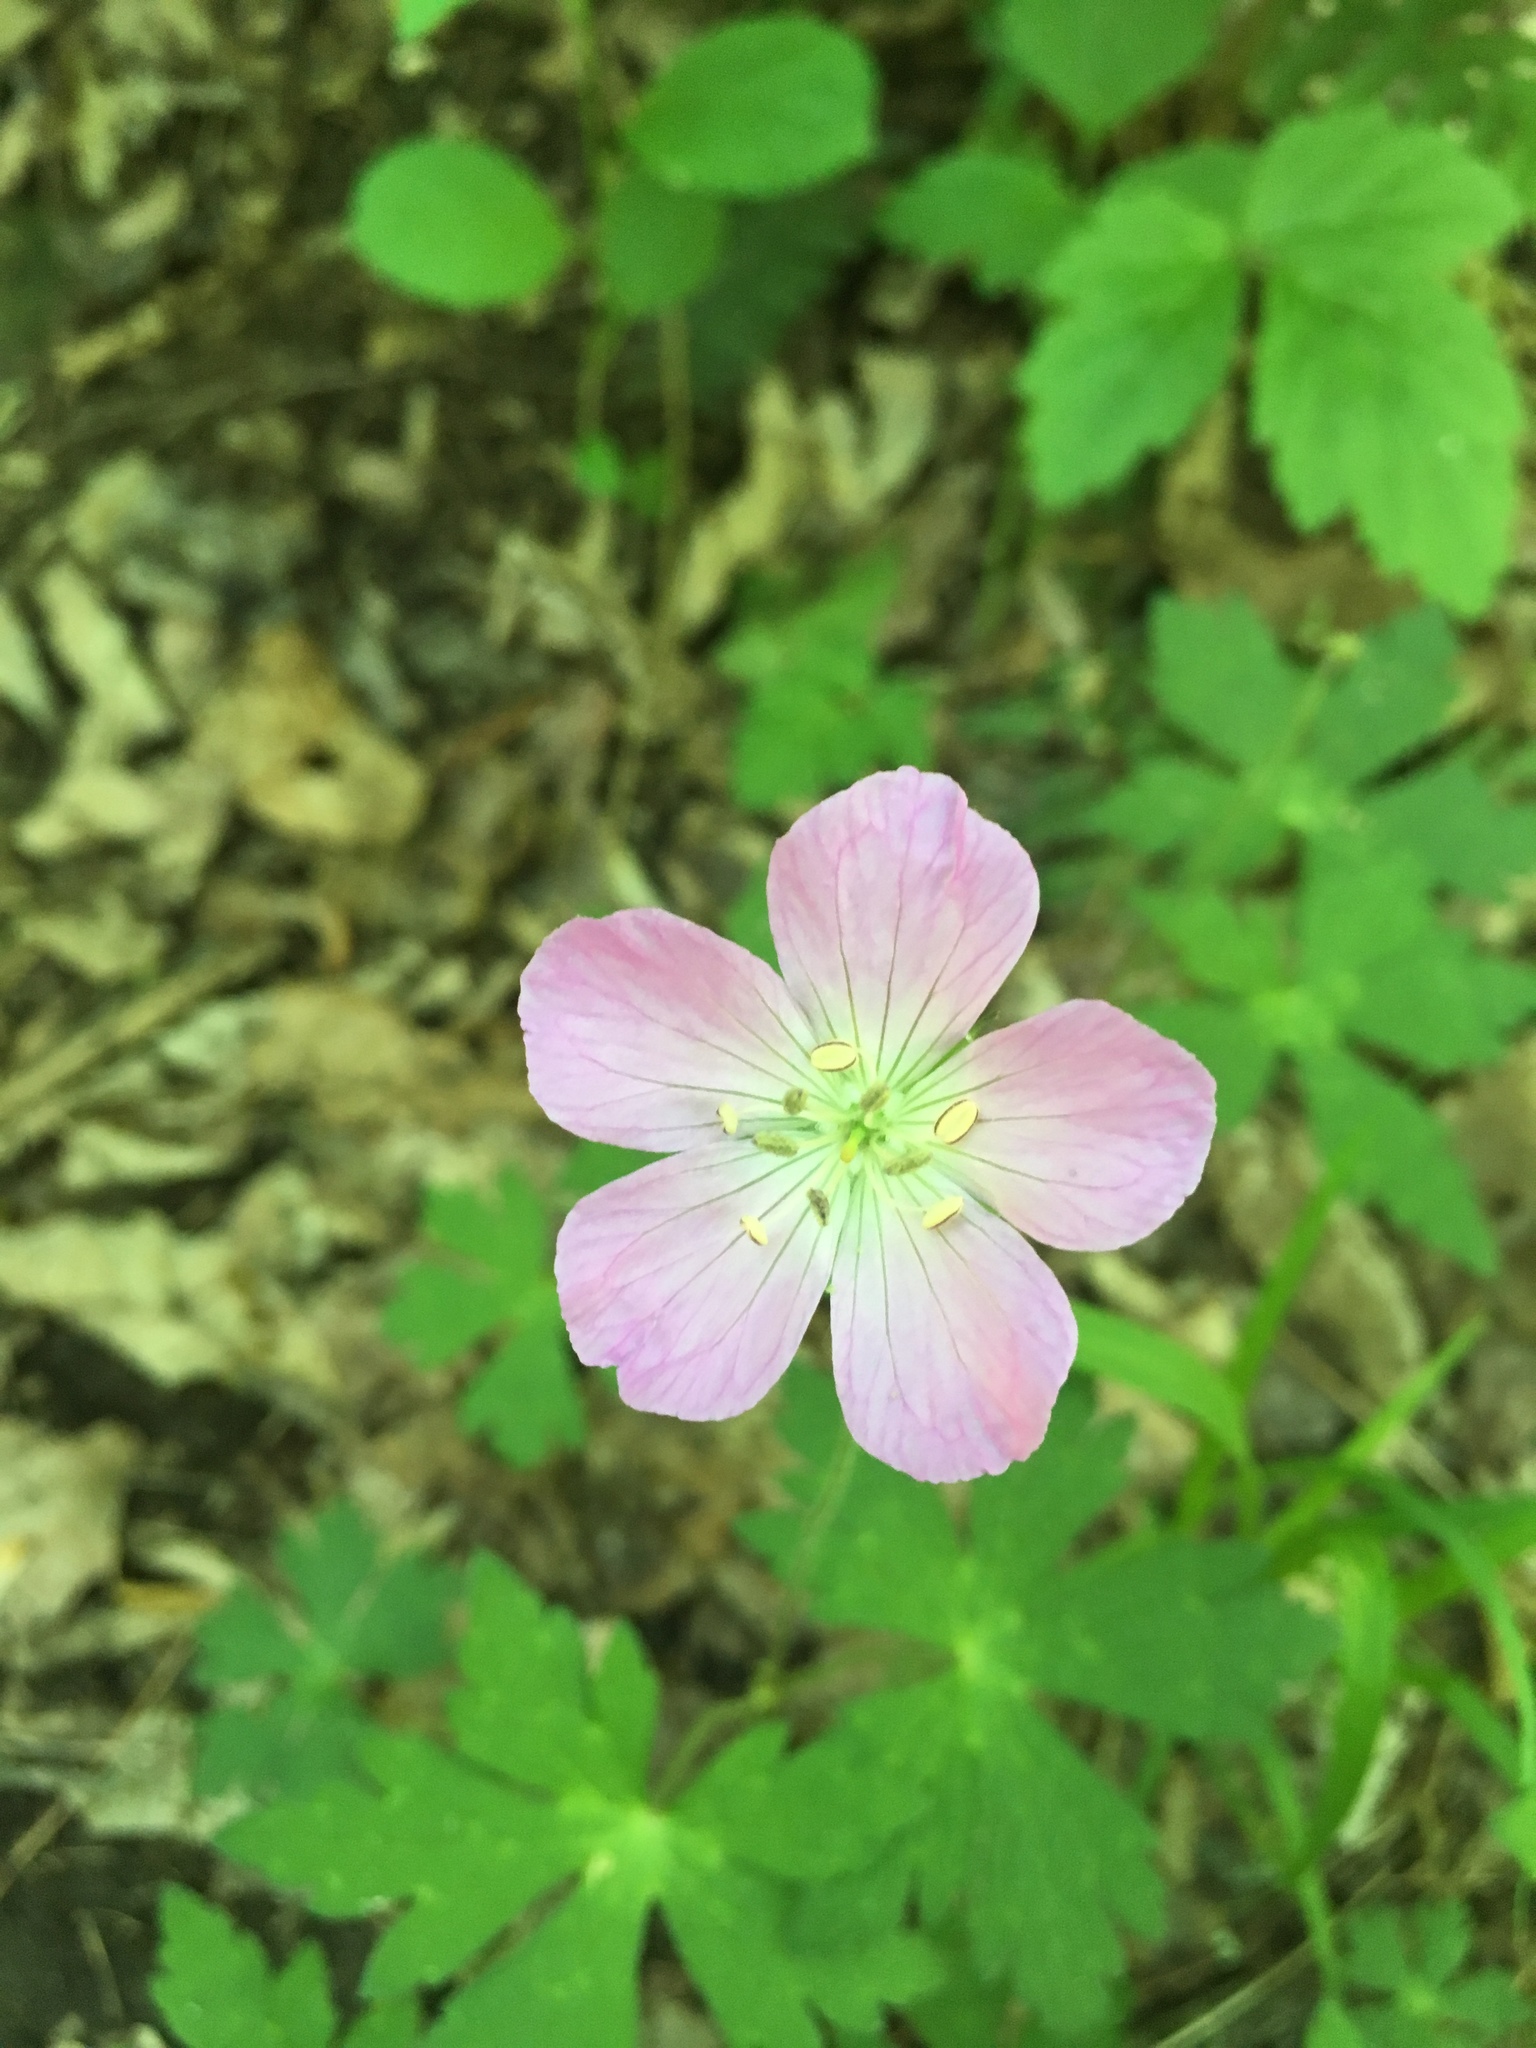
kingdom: Plantae
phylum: Tracheophyta
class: Magnoliopsida
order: Geraniales
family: Geraniaceae
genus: Geranium
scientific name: Geranium maculatum
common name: Spotted geranium
